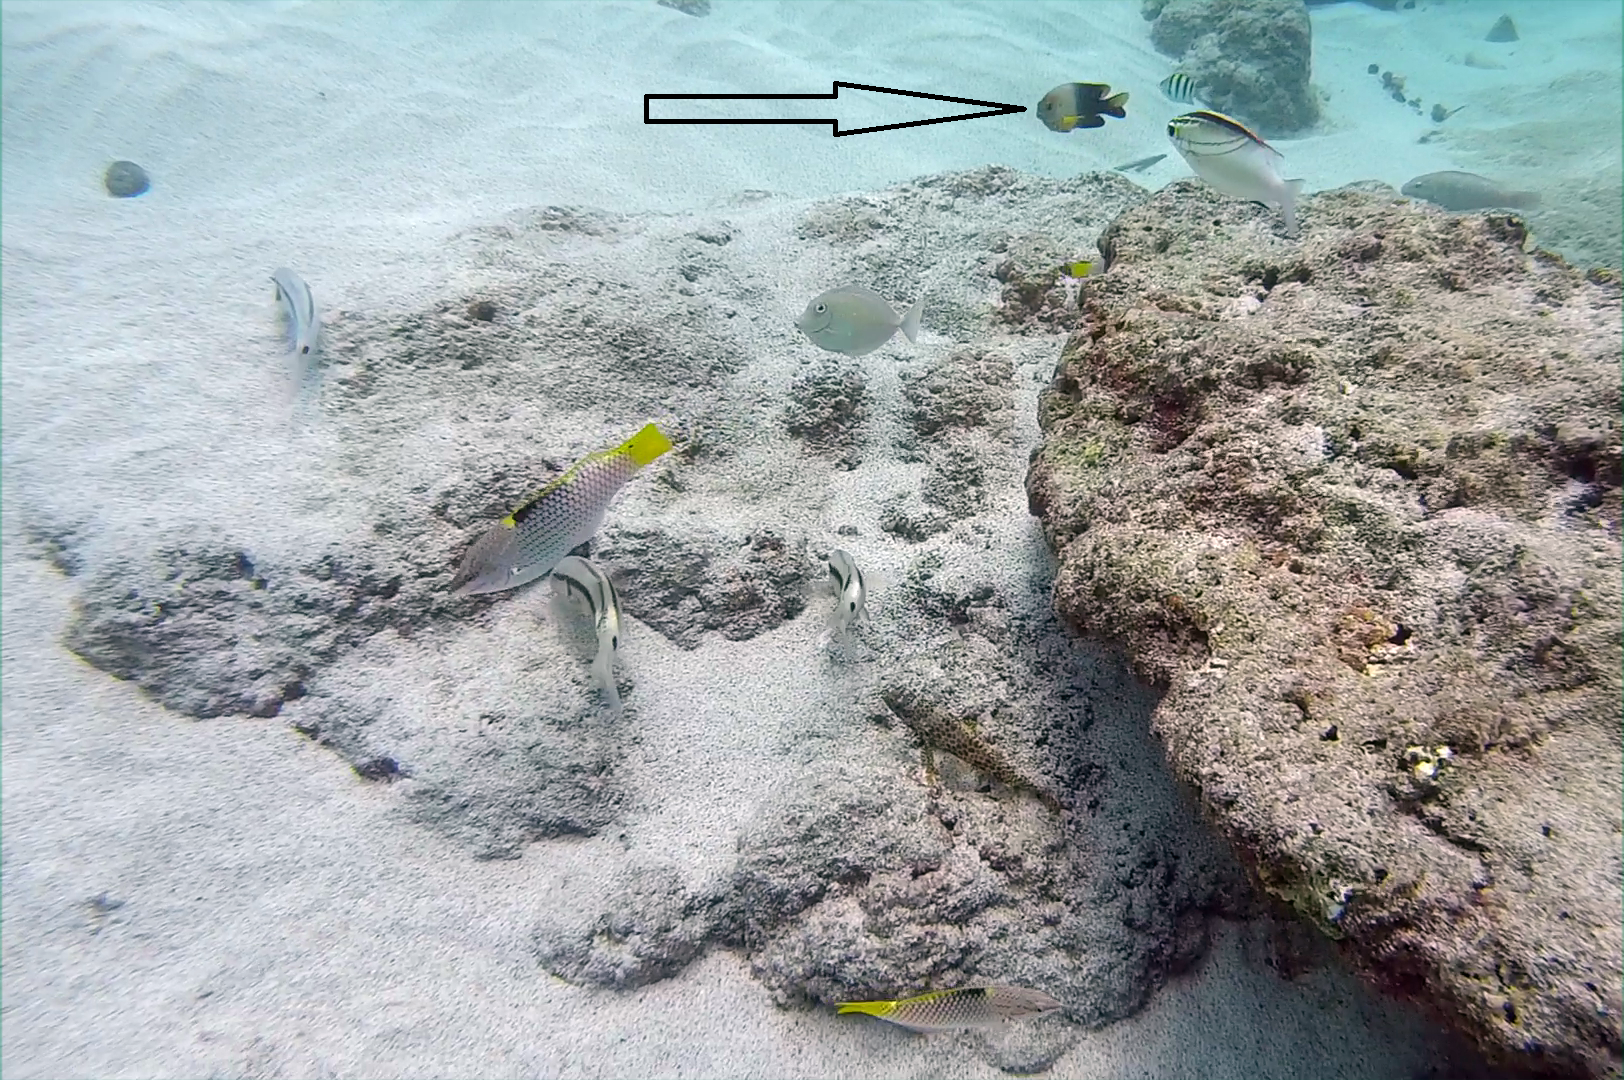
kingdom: Animalia
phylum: Chordata
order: Perciformes
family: Pomacentridae
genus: Chrysiptera
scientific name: Chrysiptera unimaculata
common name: Onespot demoiselle
